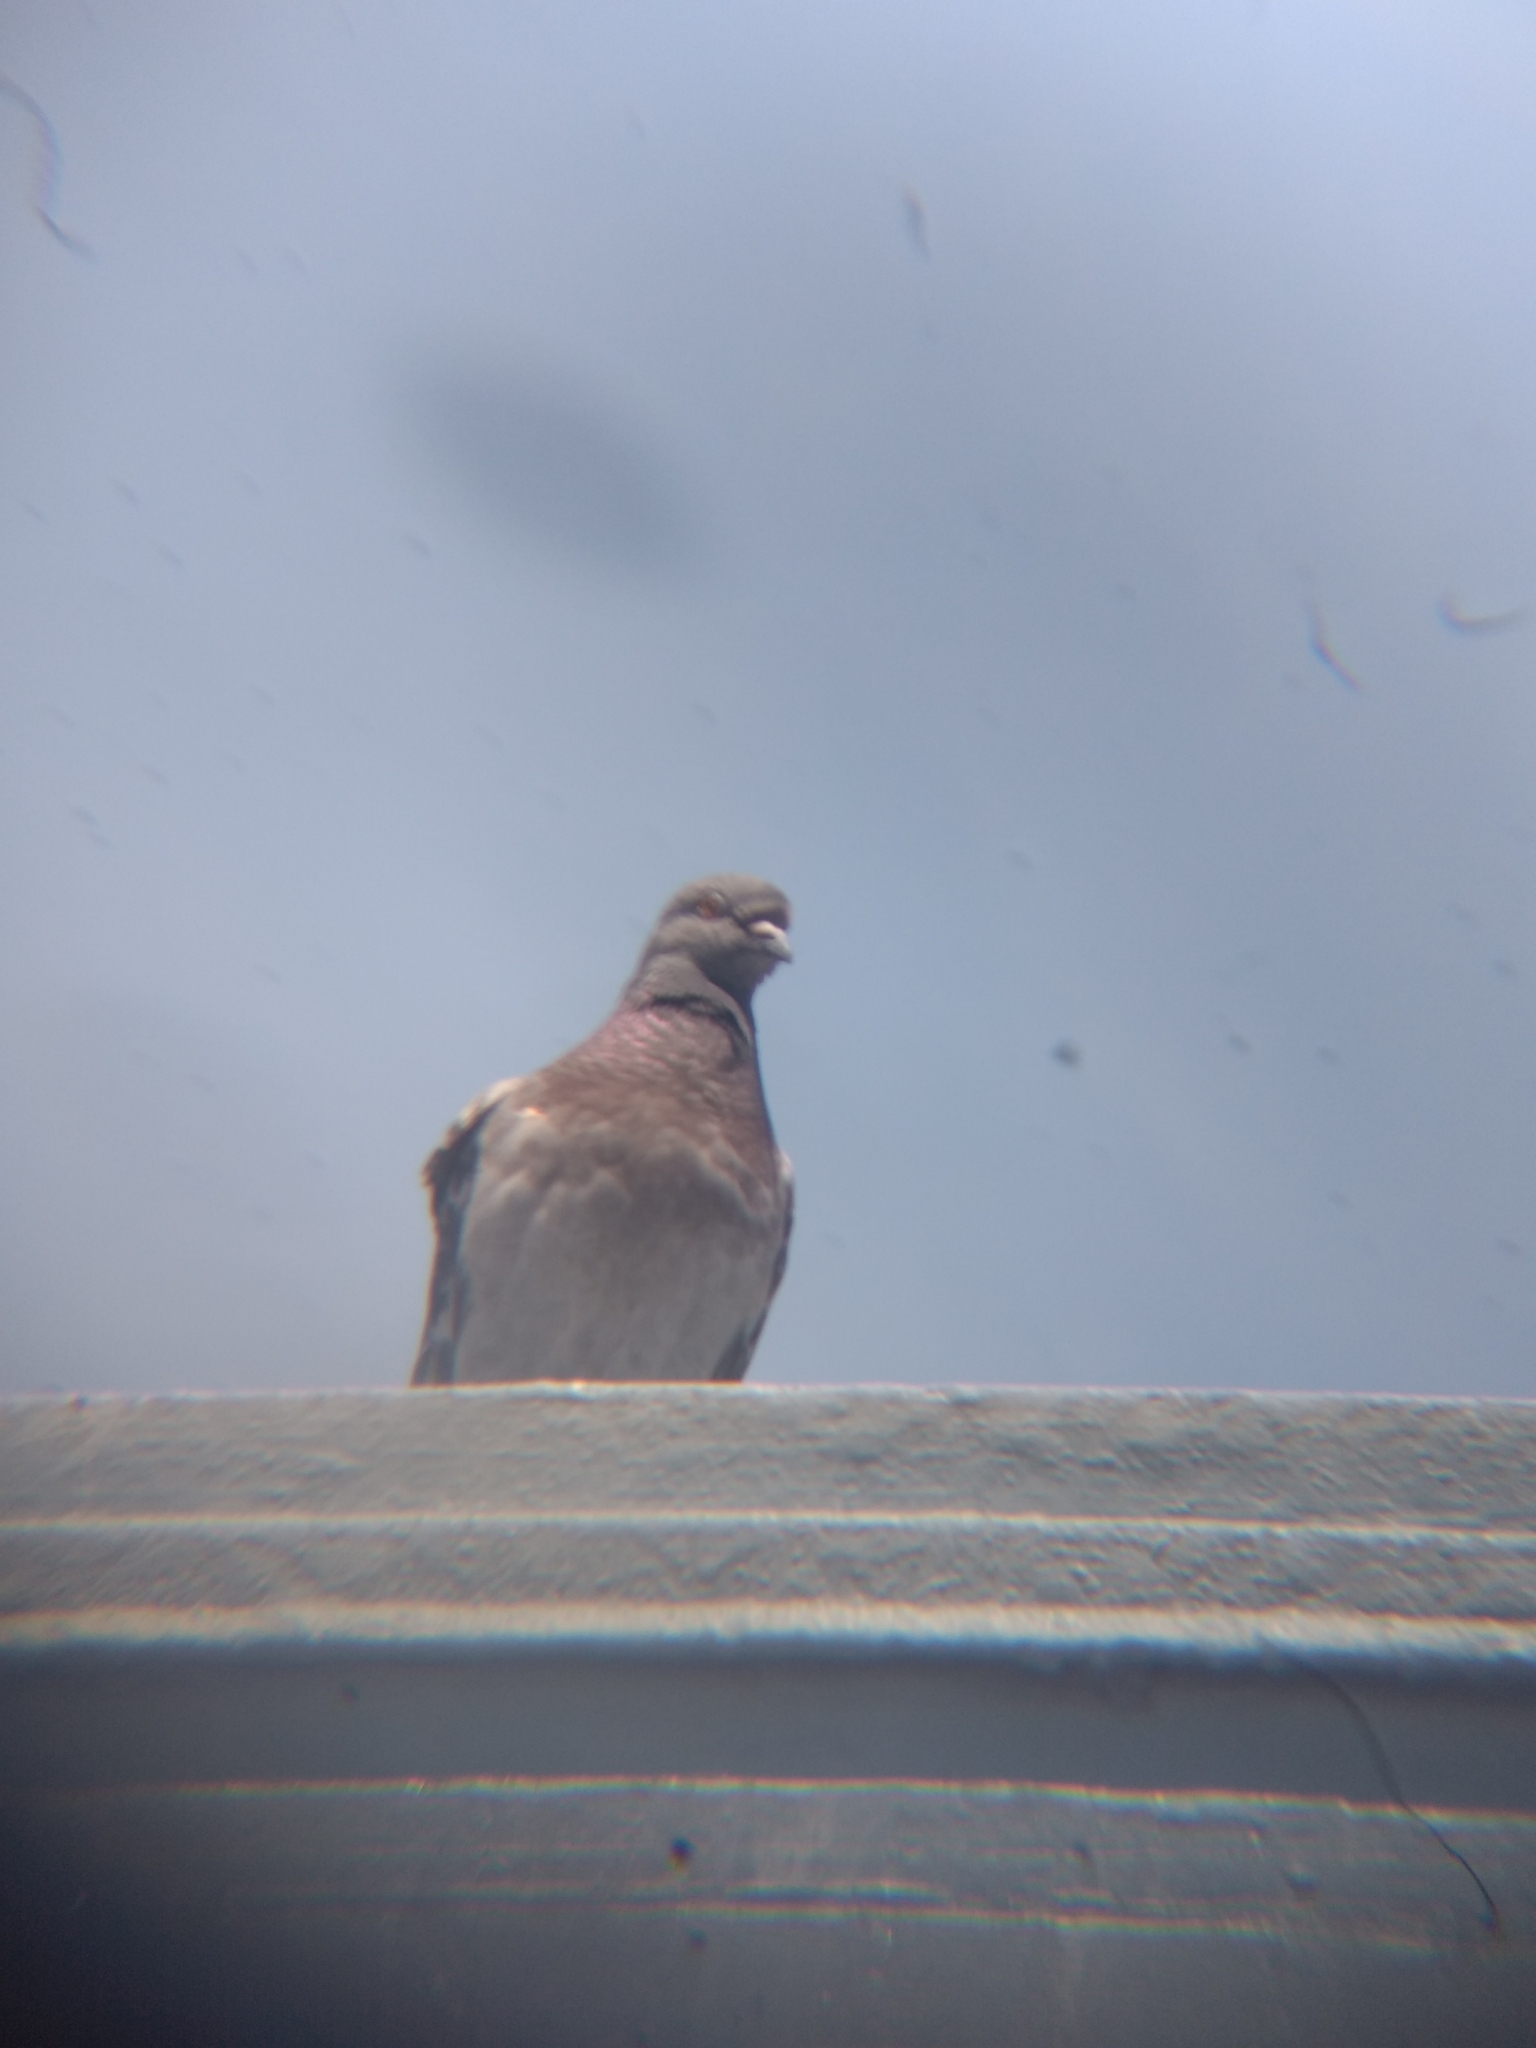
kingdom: Animalia
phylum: Chordata
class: Aves
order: Columbiformes
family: Columbidae
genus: Columba
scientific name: Columba livia
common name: Rock pigeon
